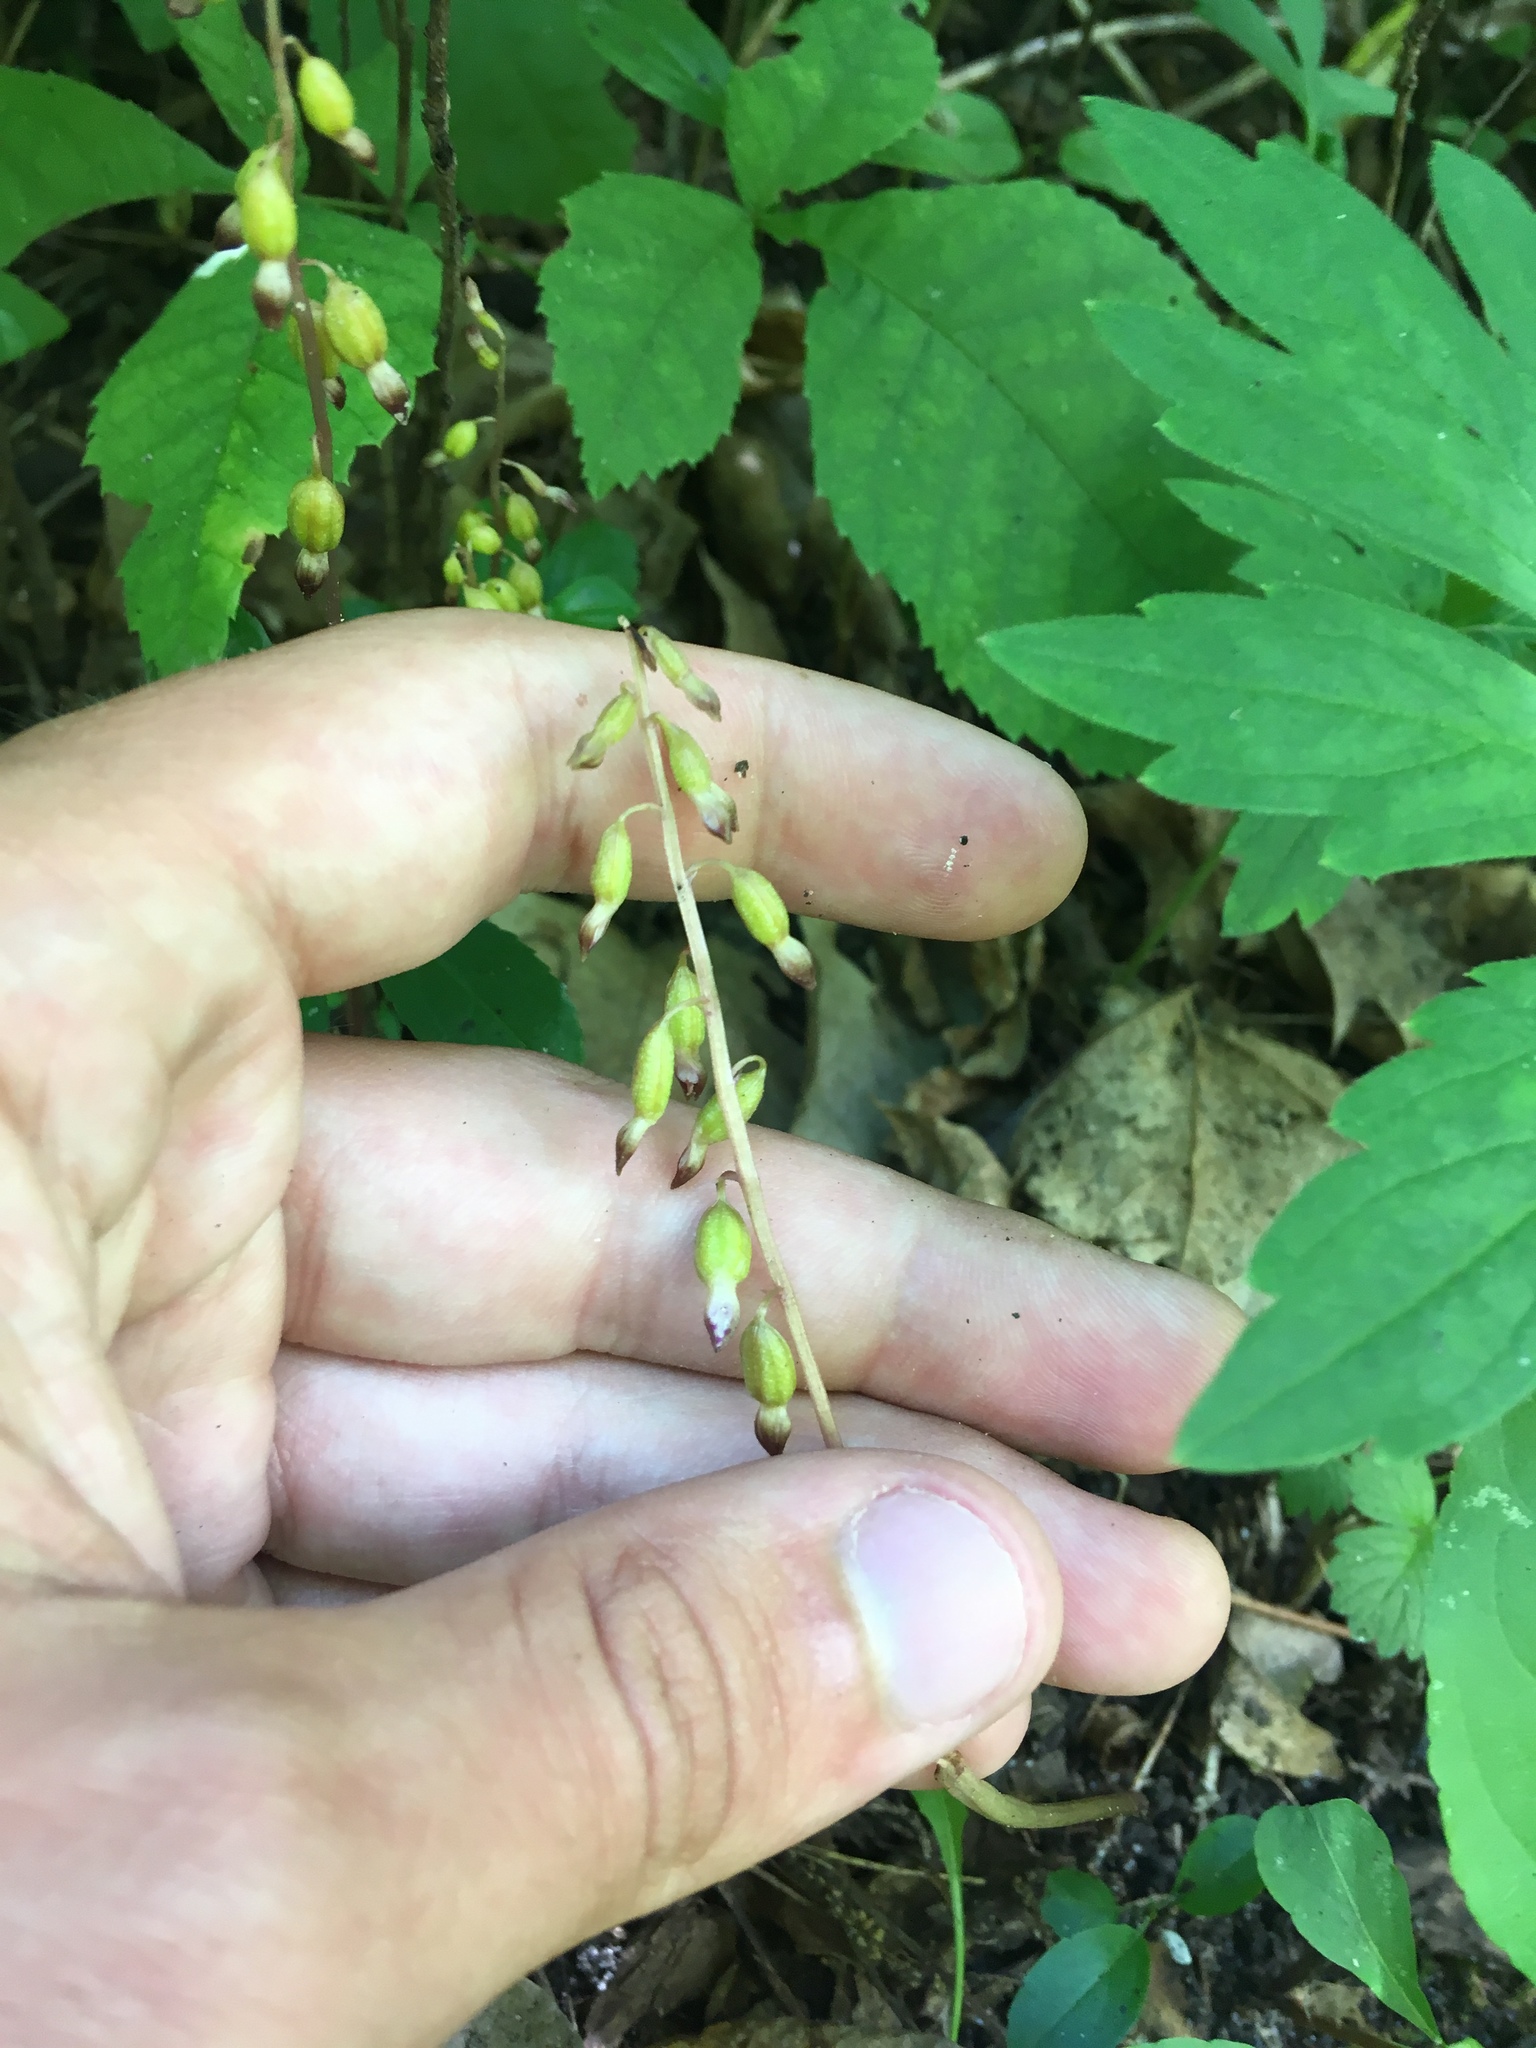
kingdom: Plantae
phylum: Tracheophyta
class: Liliopsida
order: Asparagales
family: Orchidaceae
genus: Corallorhiza
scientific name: Corallorhiza odontorhiza
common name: Autumn coralroot
